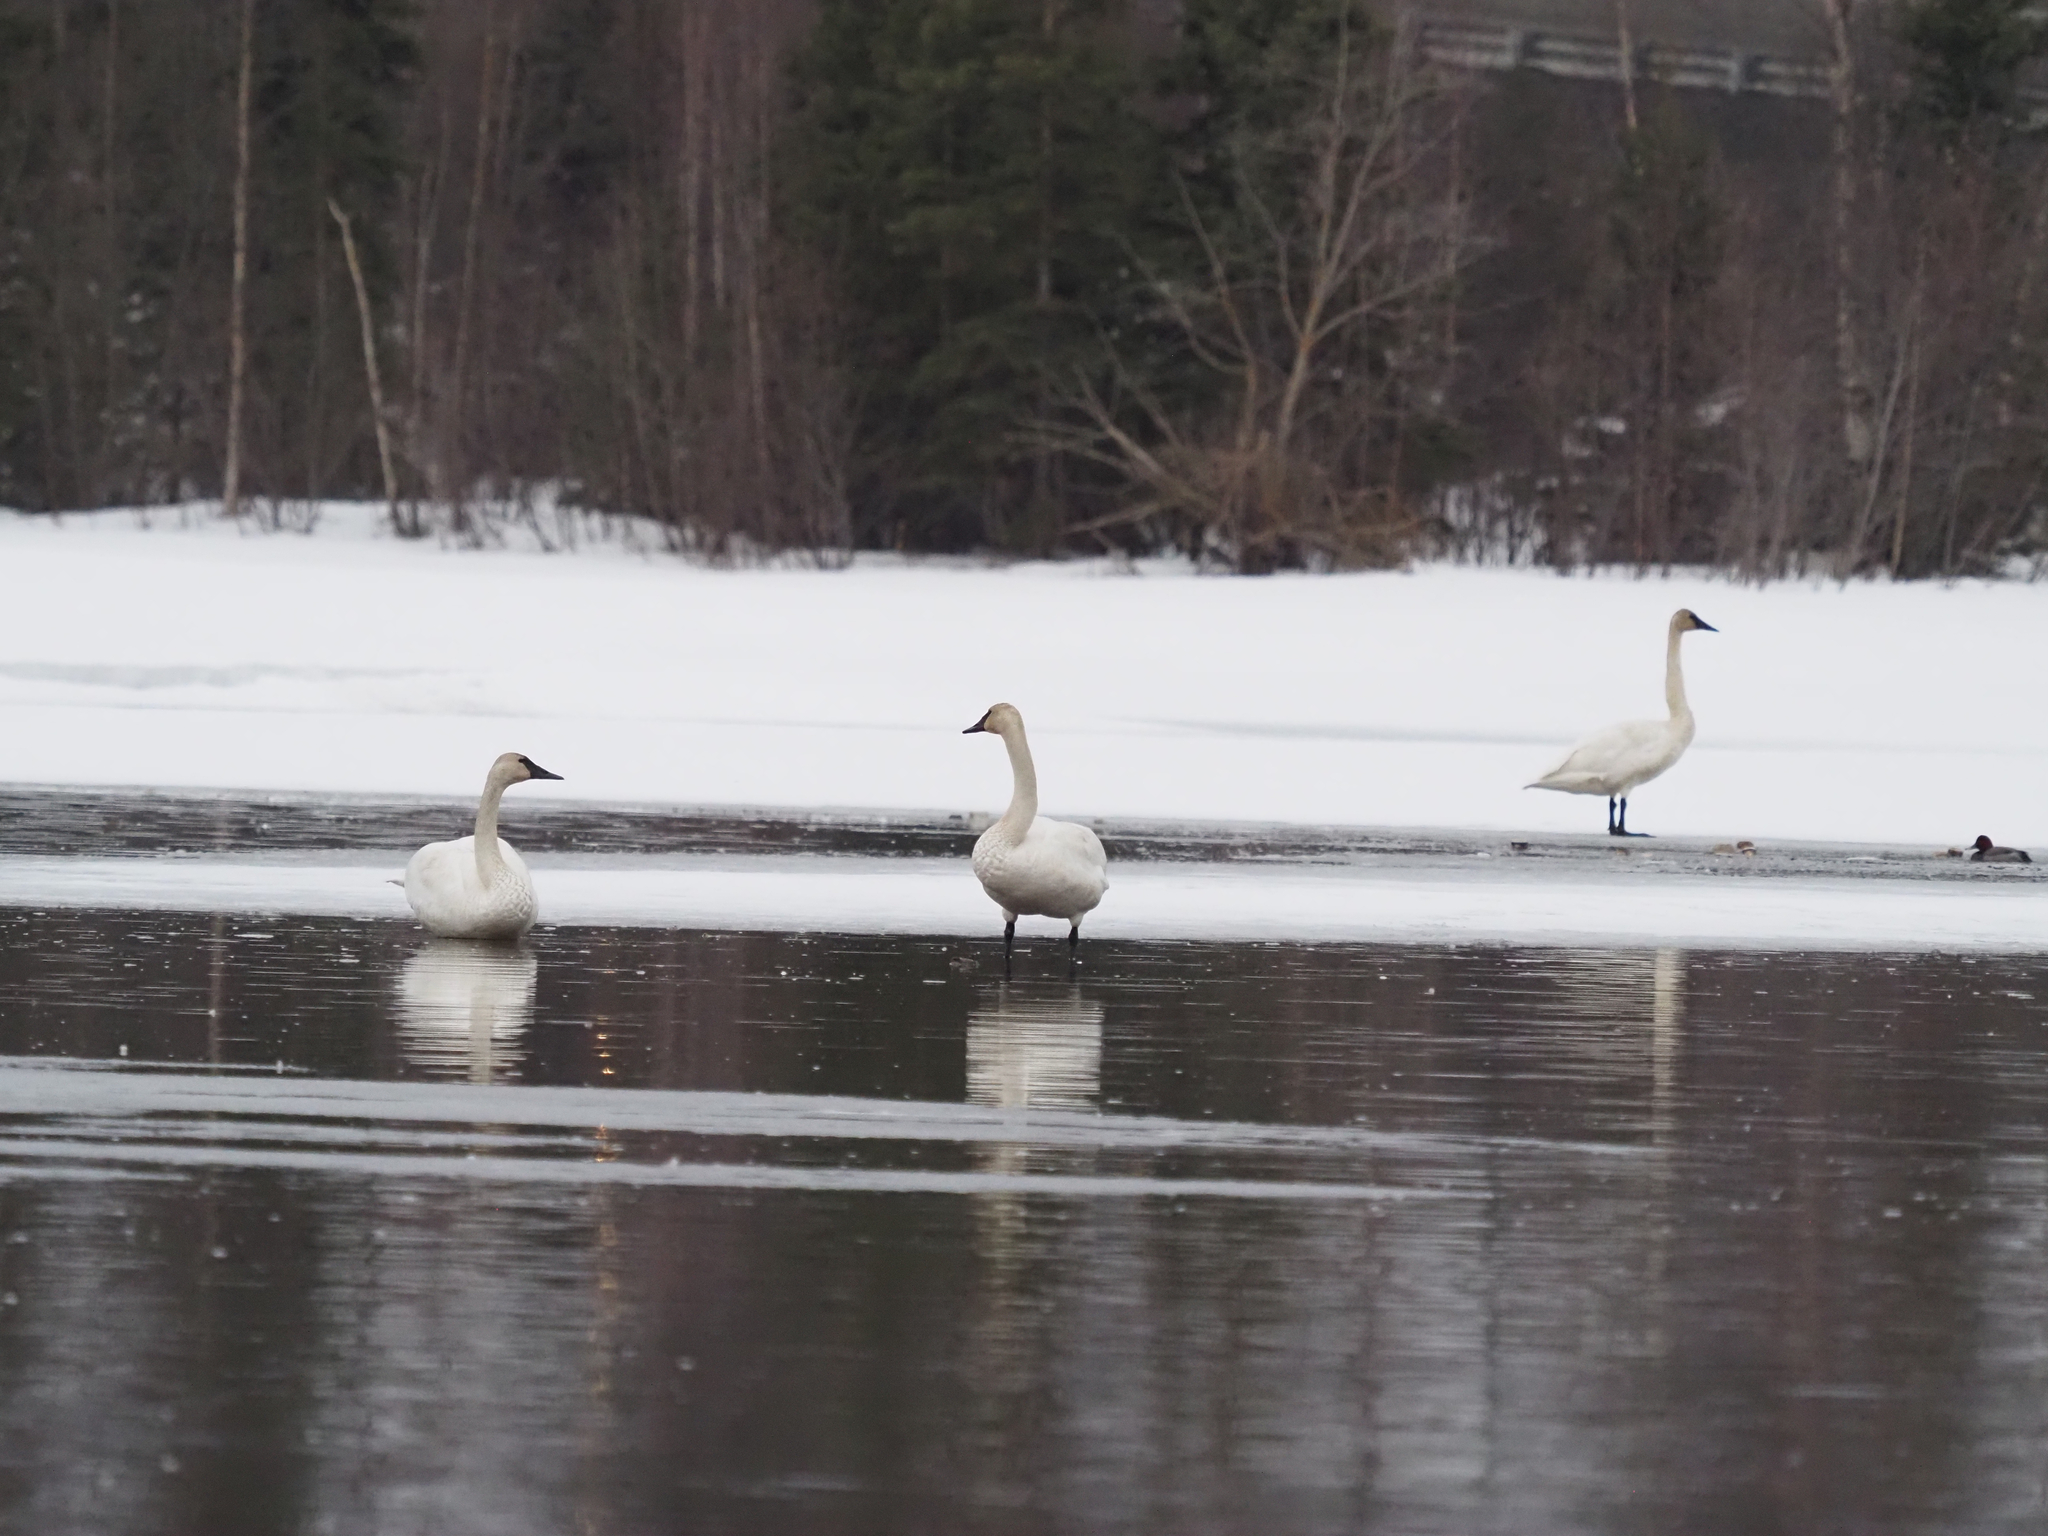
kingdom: Animalia
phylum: Chordata
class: Aves
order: Anseriformes
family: Anatidae
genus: Cygnus
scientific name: Cygnus buccinator
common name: Trumpeter swan
